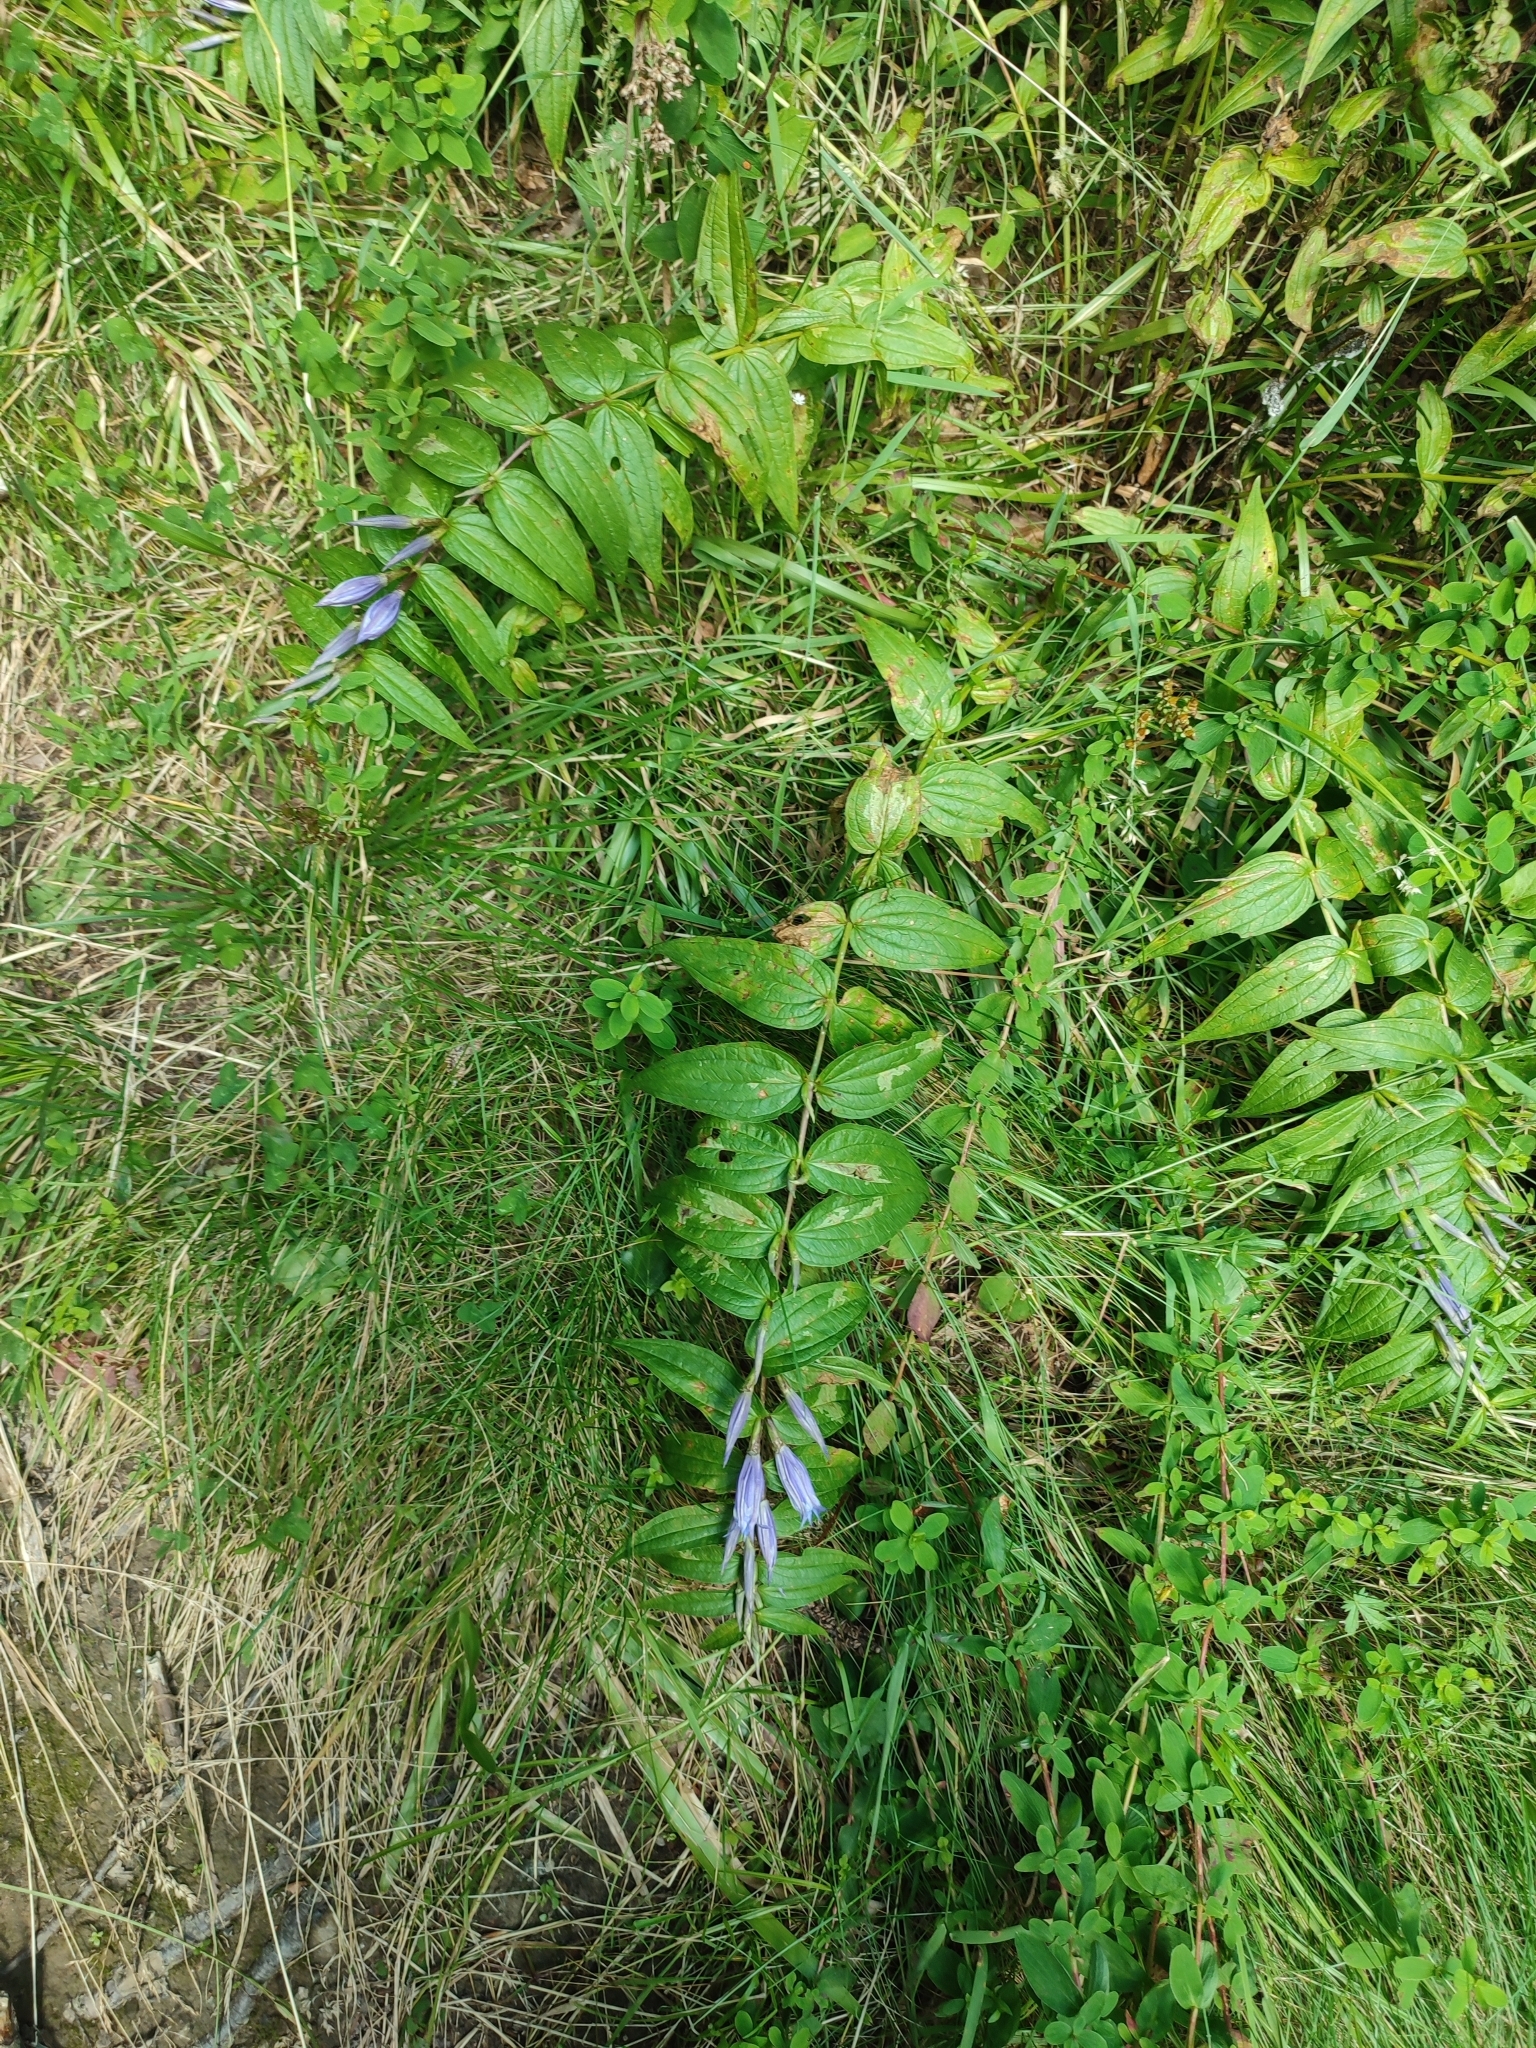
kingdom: Plantae
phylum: Tracheophyta
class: Magnoliopsida
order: Gentianales
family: Gentianaceae
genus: Gentiana
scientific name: Gentiana asclepiadea
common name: Willow gentian
